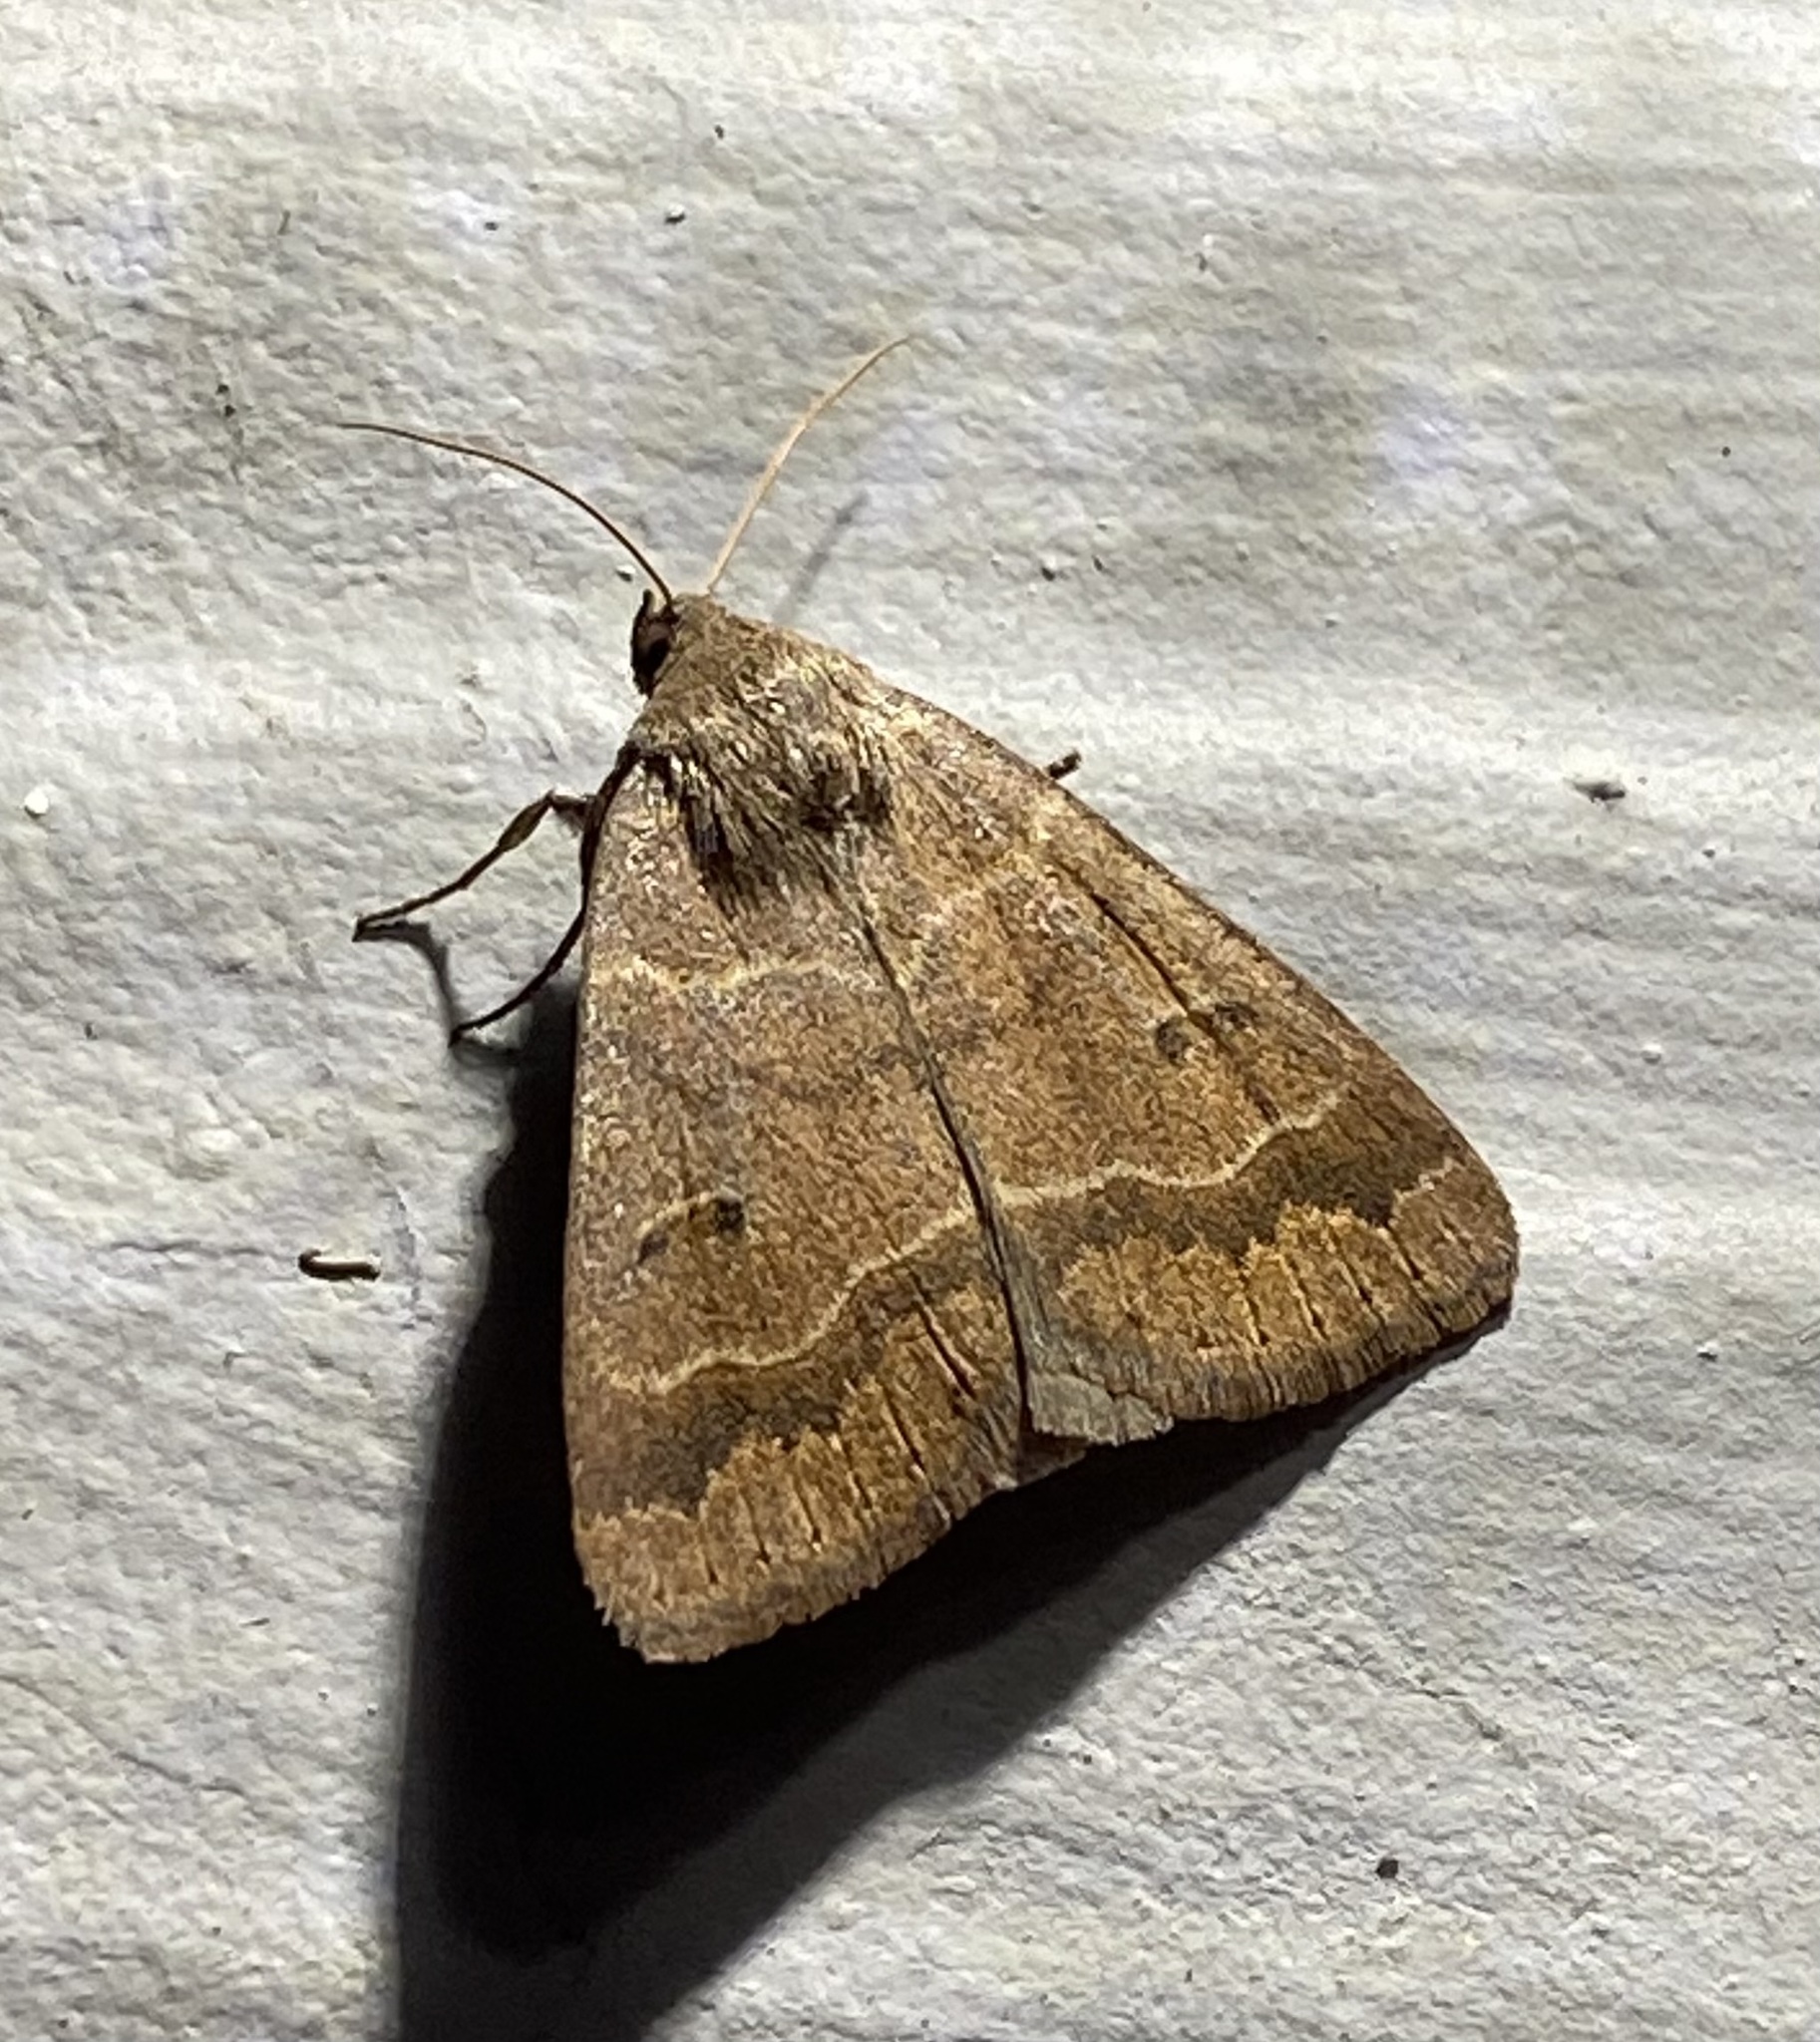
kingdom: Animalia
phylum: Arthropoda
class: Insecta
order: Lepidoptera
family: Erebidae
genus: Phoberia
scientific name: Phoberia atomaris
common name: Common oak moth
